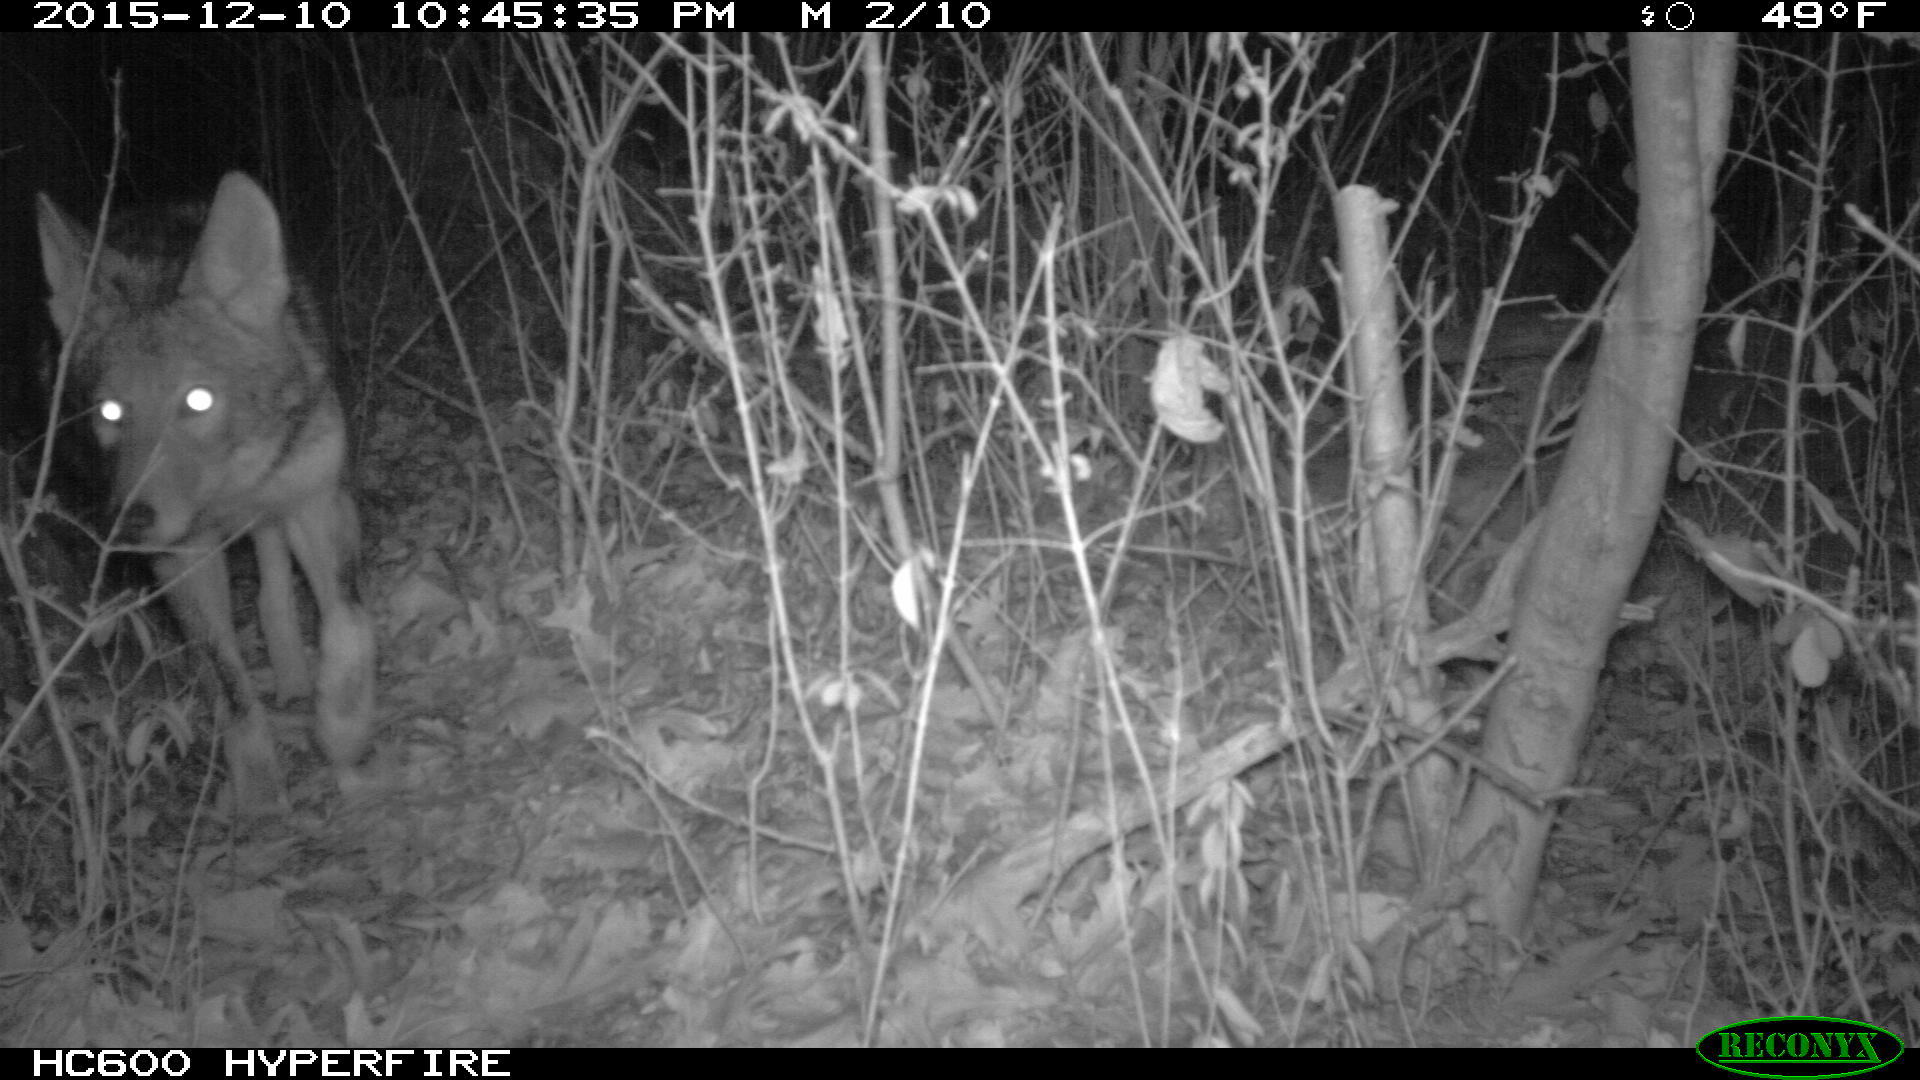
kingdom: Animalia
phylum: Chordata
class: Mammalia
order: Carnivora
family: Canidae
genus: Canis
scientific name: Canis latrans
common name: Coyote
